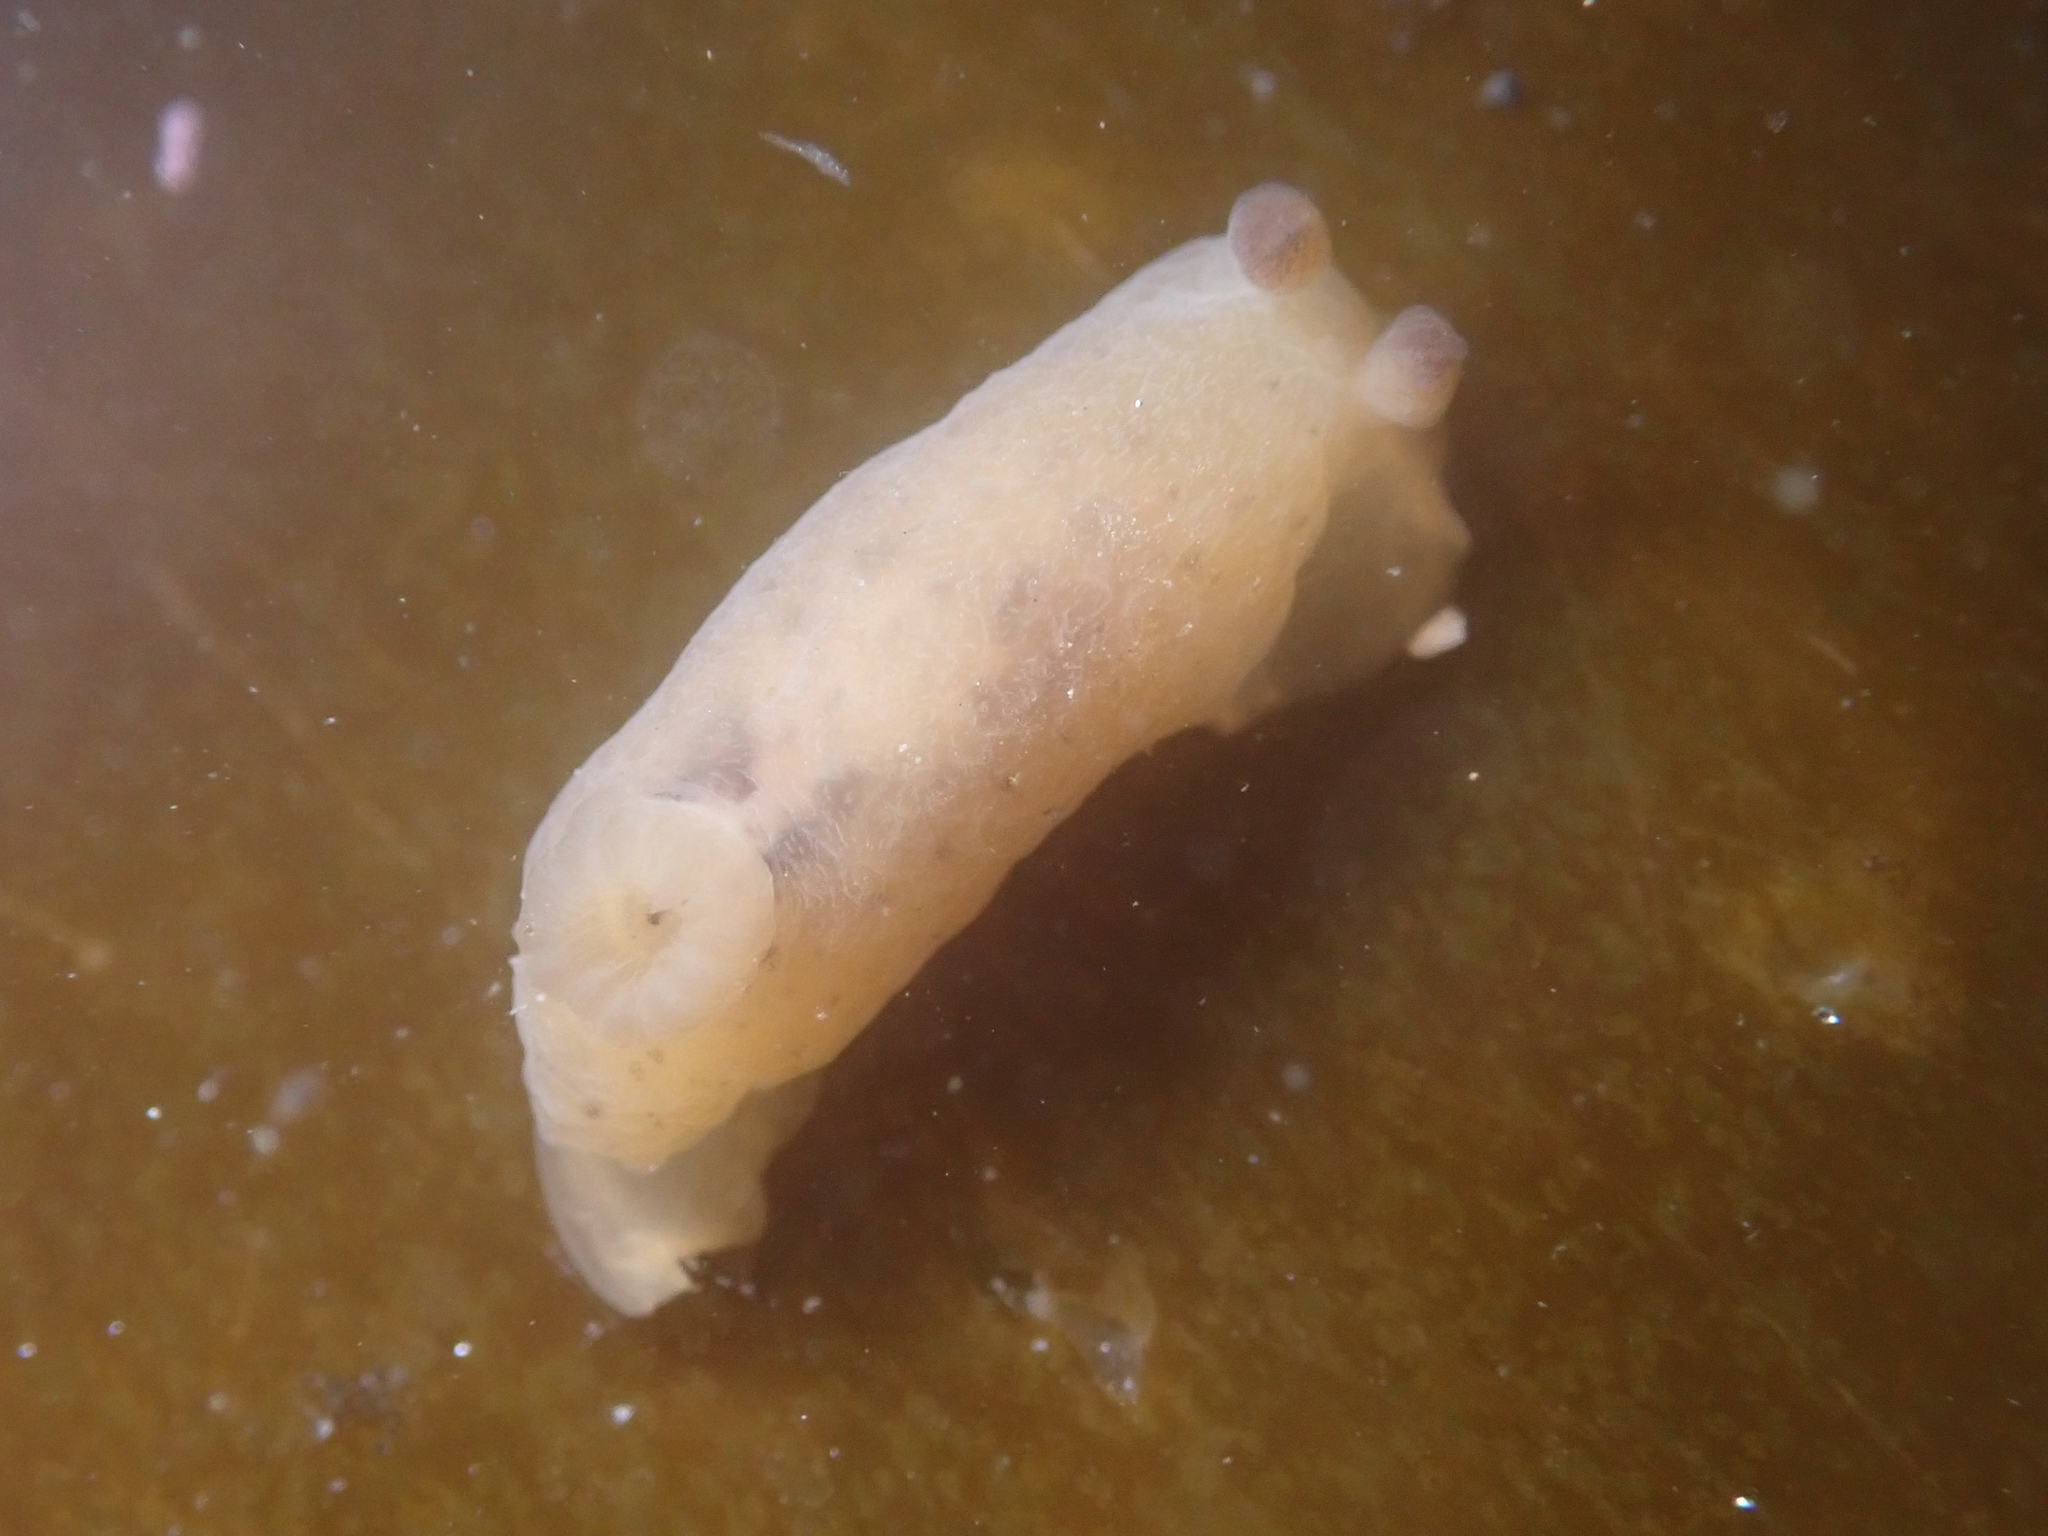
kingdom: Animalia
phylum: Mollusca
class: Gastropoda
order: Nudibranchia
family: Actinocyclidae
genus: Hallaxa
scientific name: Hallaxa chani
